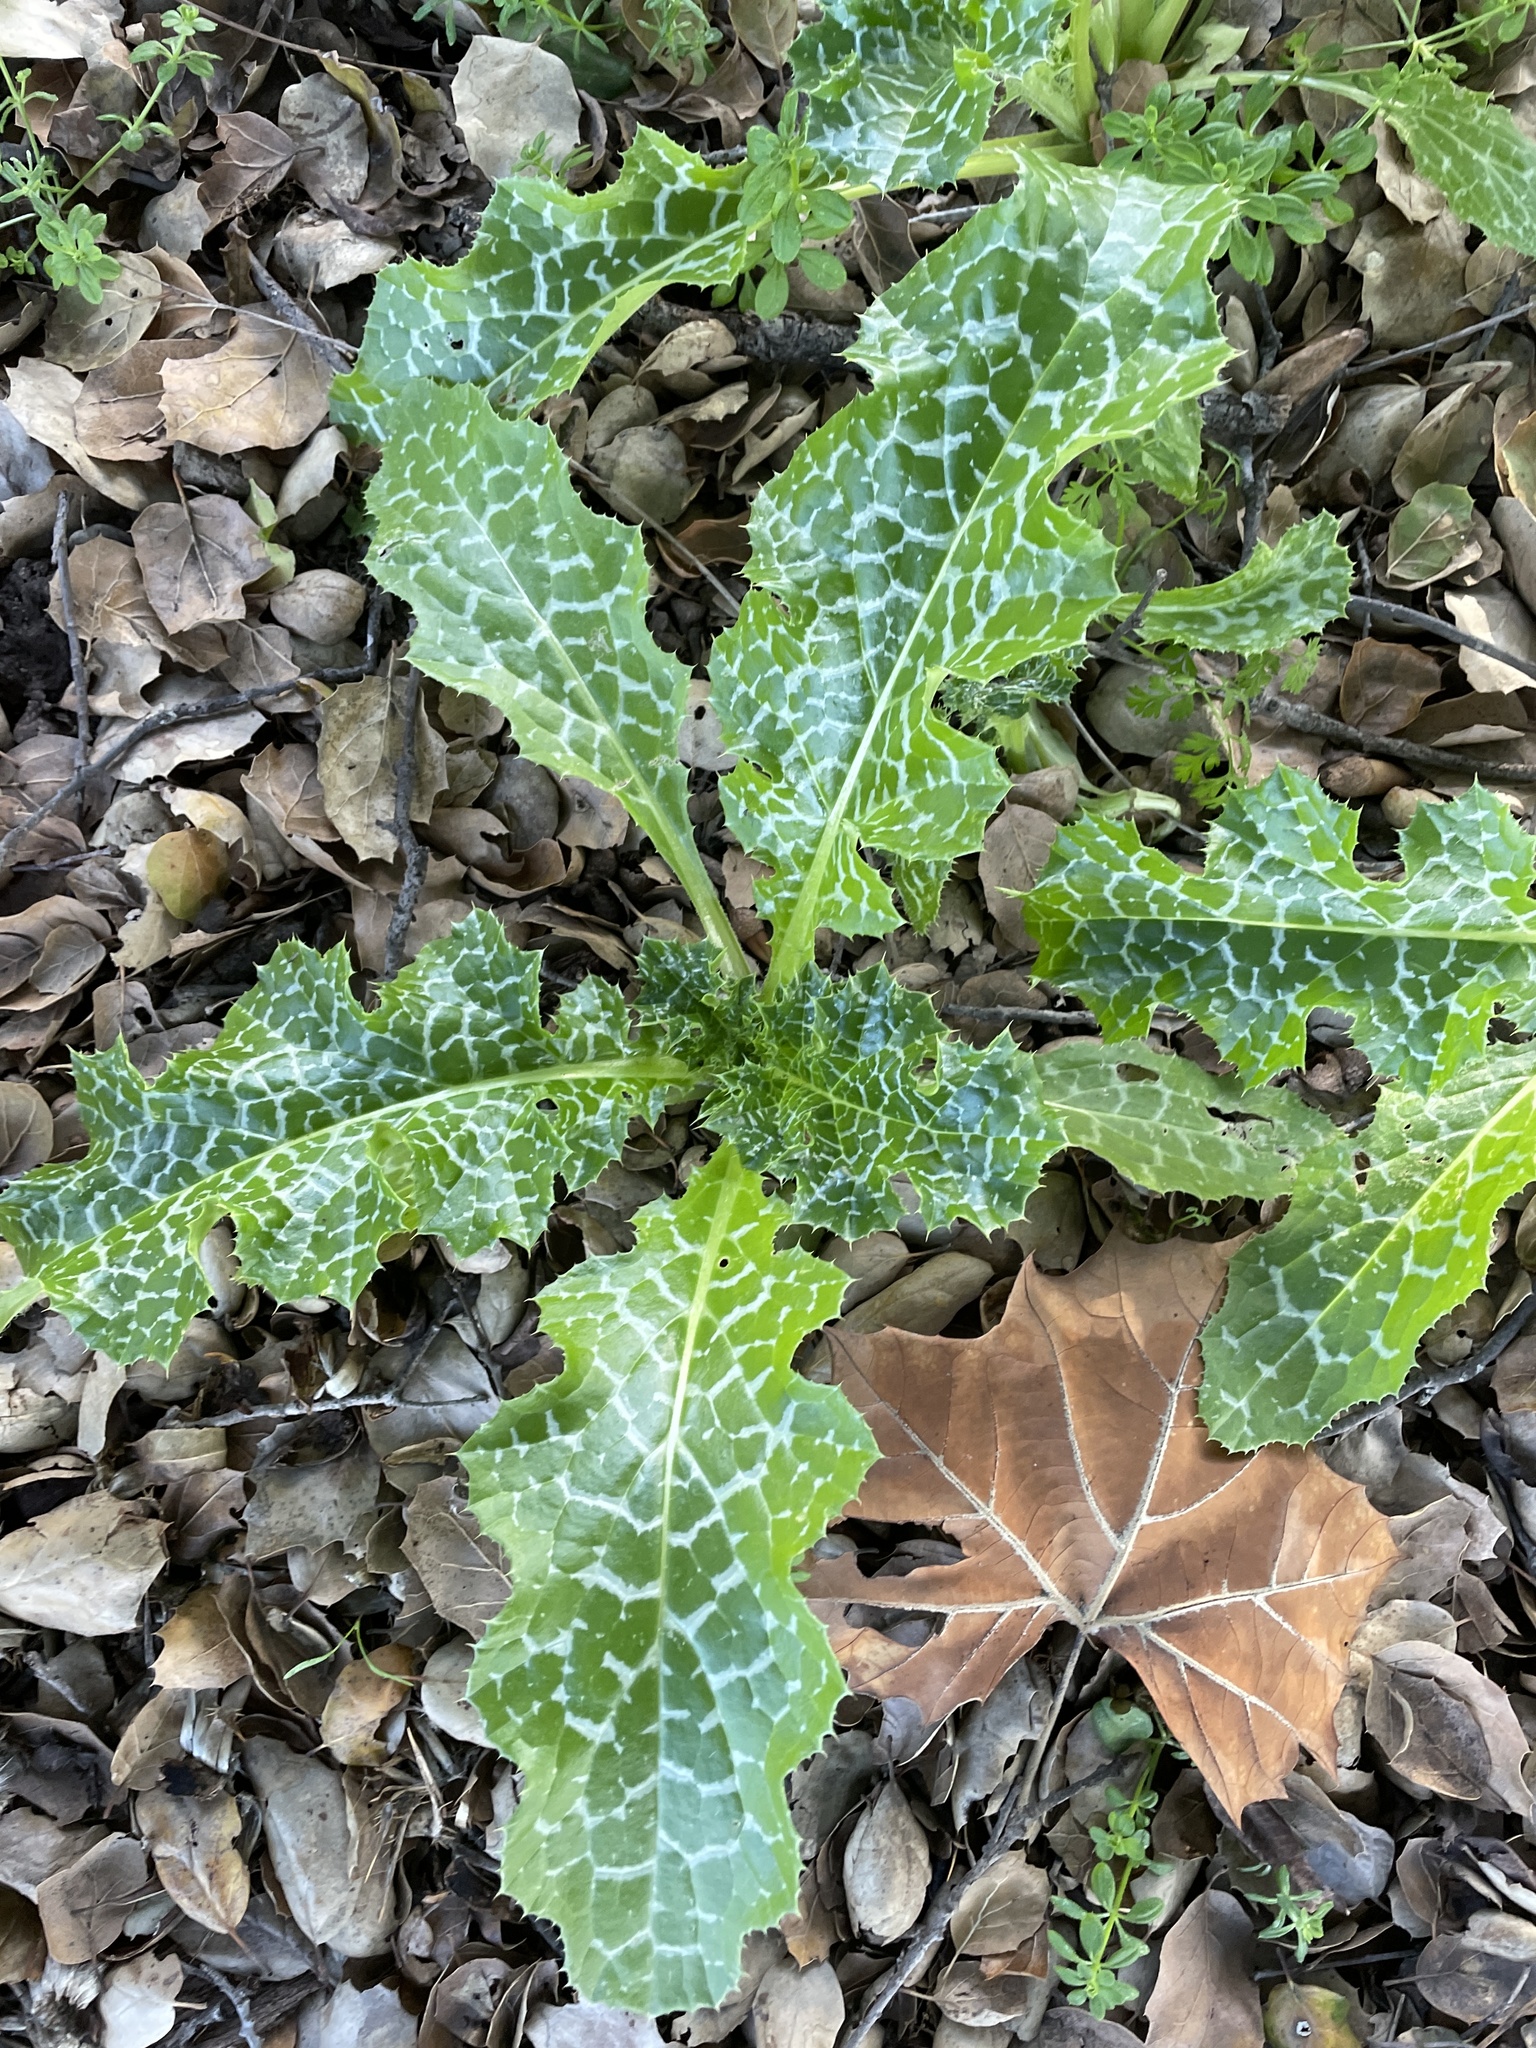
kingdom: Plantae
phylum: Tracheophyta
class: Magnoliopsida
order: Asterales
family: Asteraceae
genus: Silybum
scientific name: Silybum marianum
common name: Milk thistle
